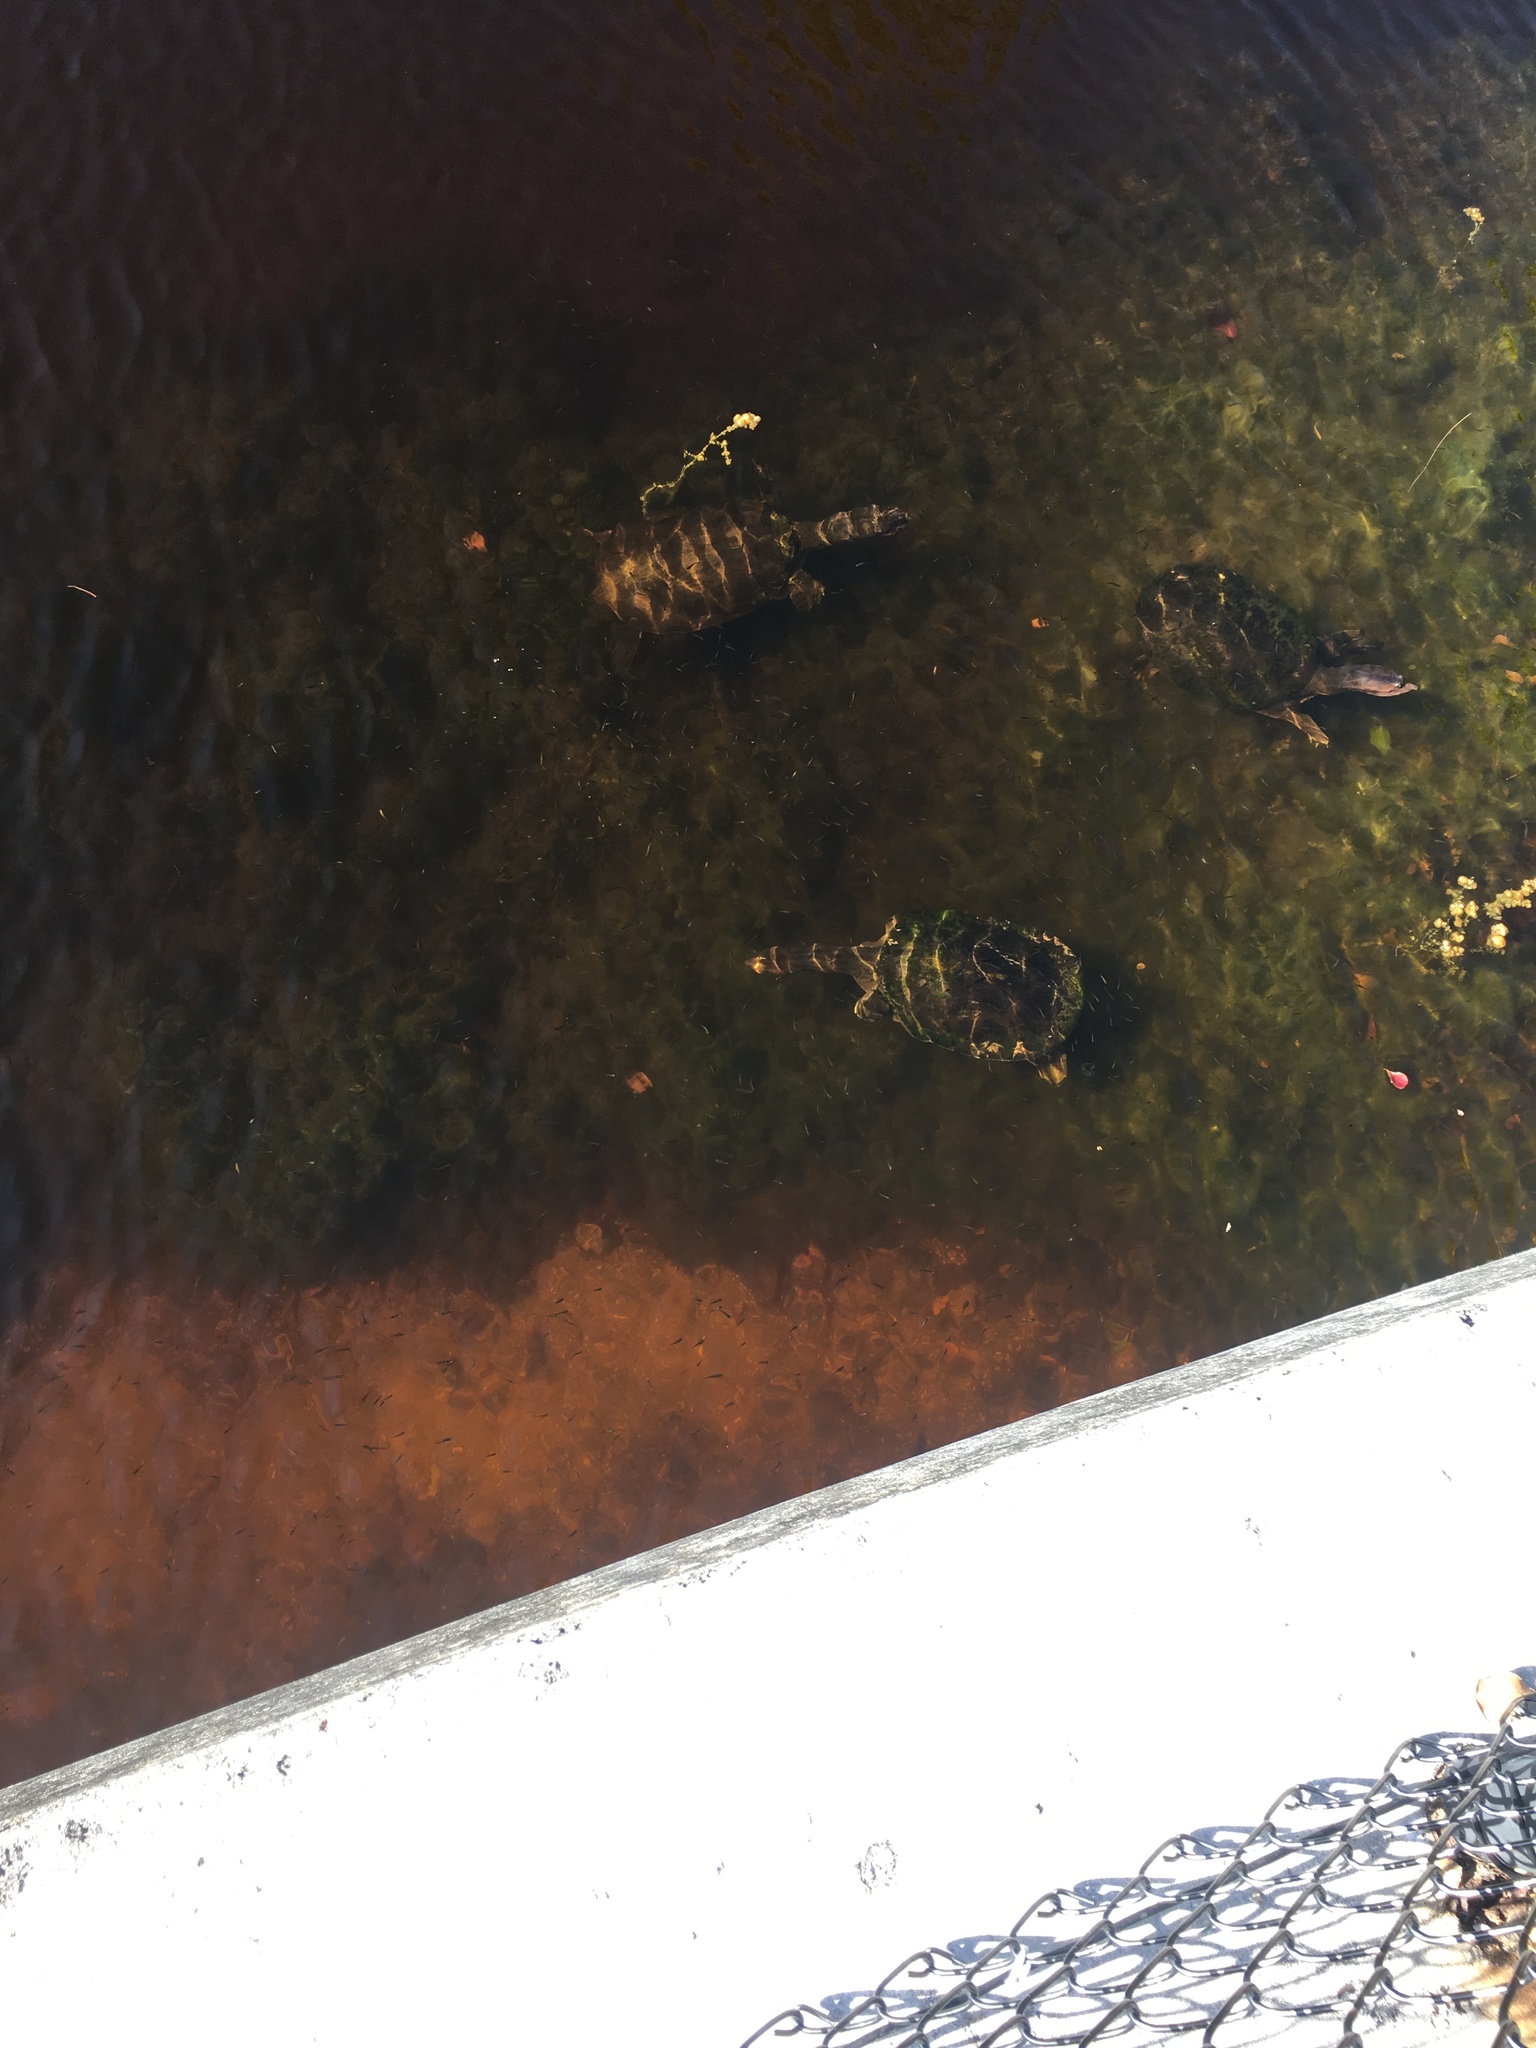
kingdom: Animalia
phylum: Chordata
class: Testudines
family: Trionychidae
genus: Apalone
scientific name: Apalone ferox
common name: Florida softshell turtle
